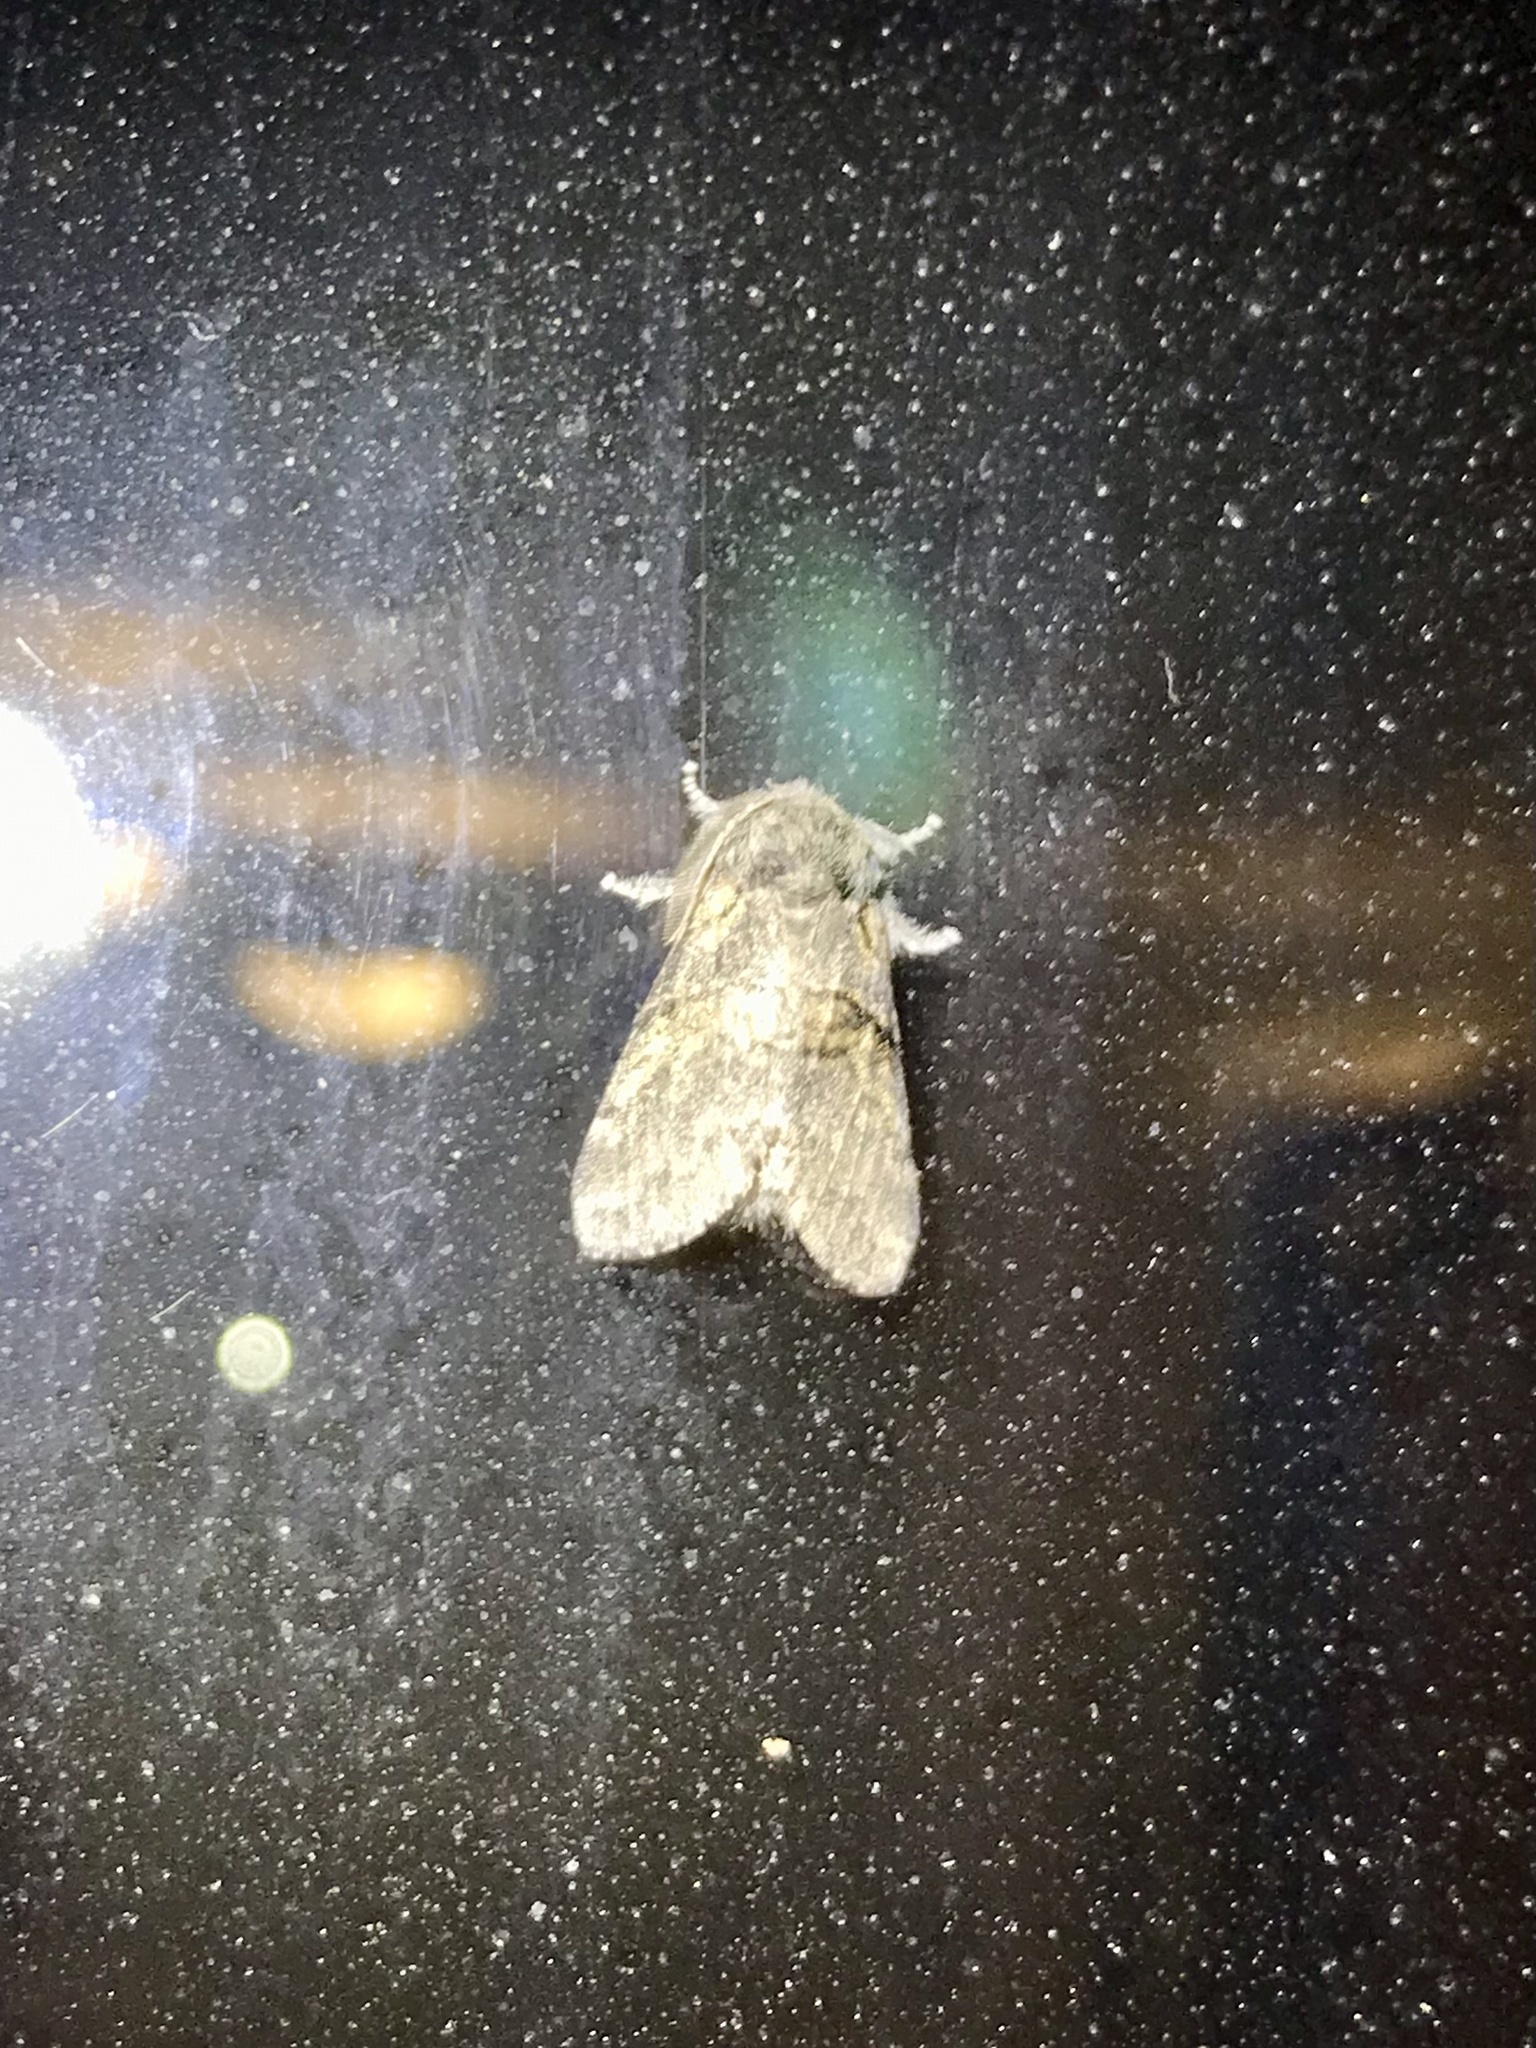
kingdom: Animalia
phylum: Arthropoda
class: Insecta
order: Lepidoptera
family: Notodontidae
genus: Gluphisia
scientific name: Gluphisia septentrionis
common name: Common gluphisia
